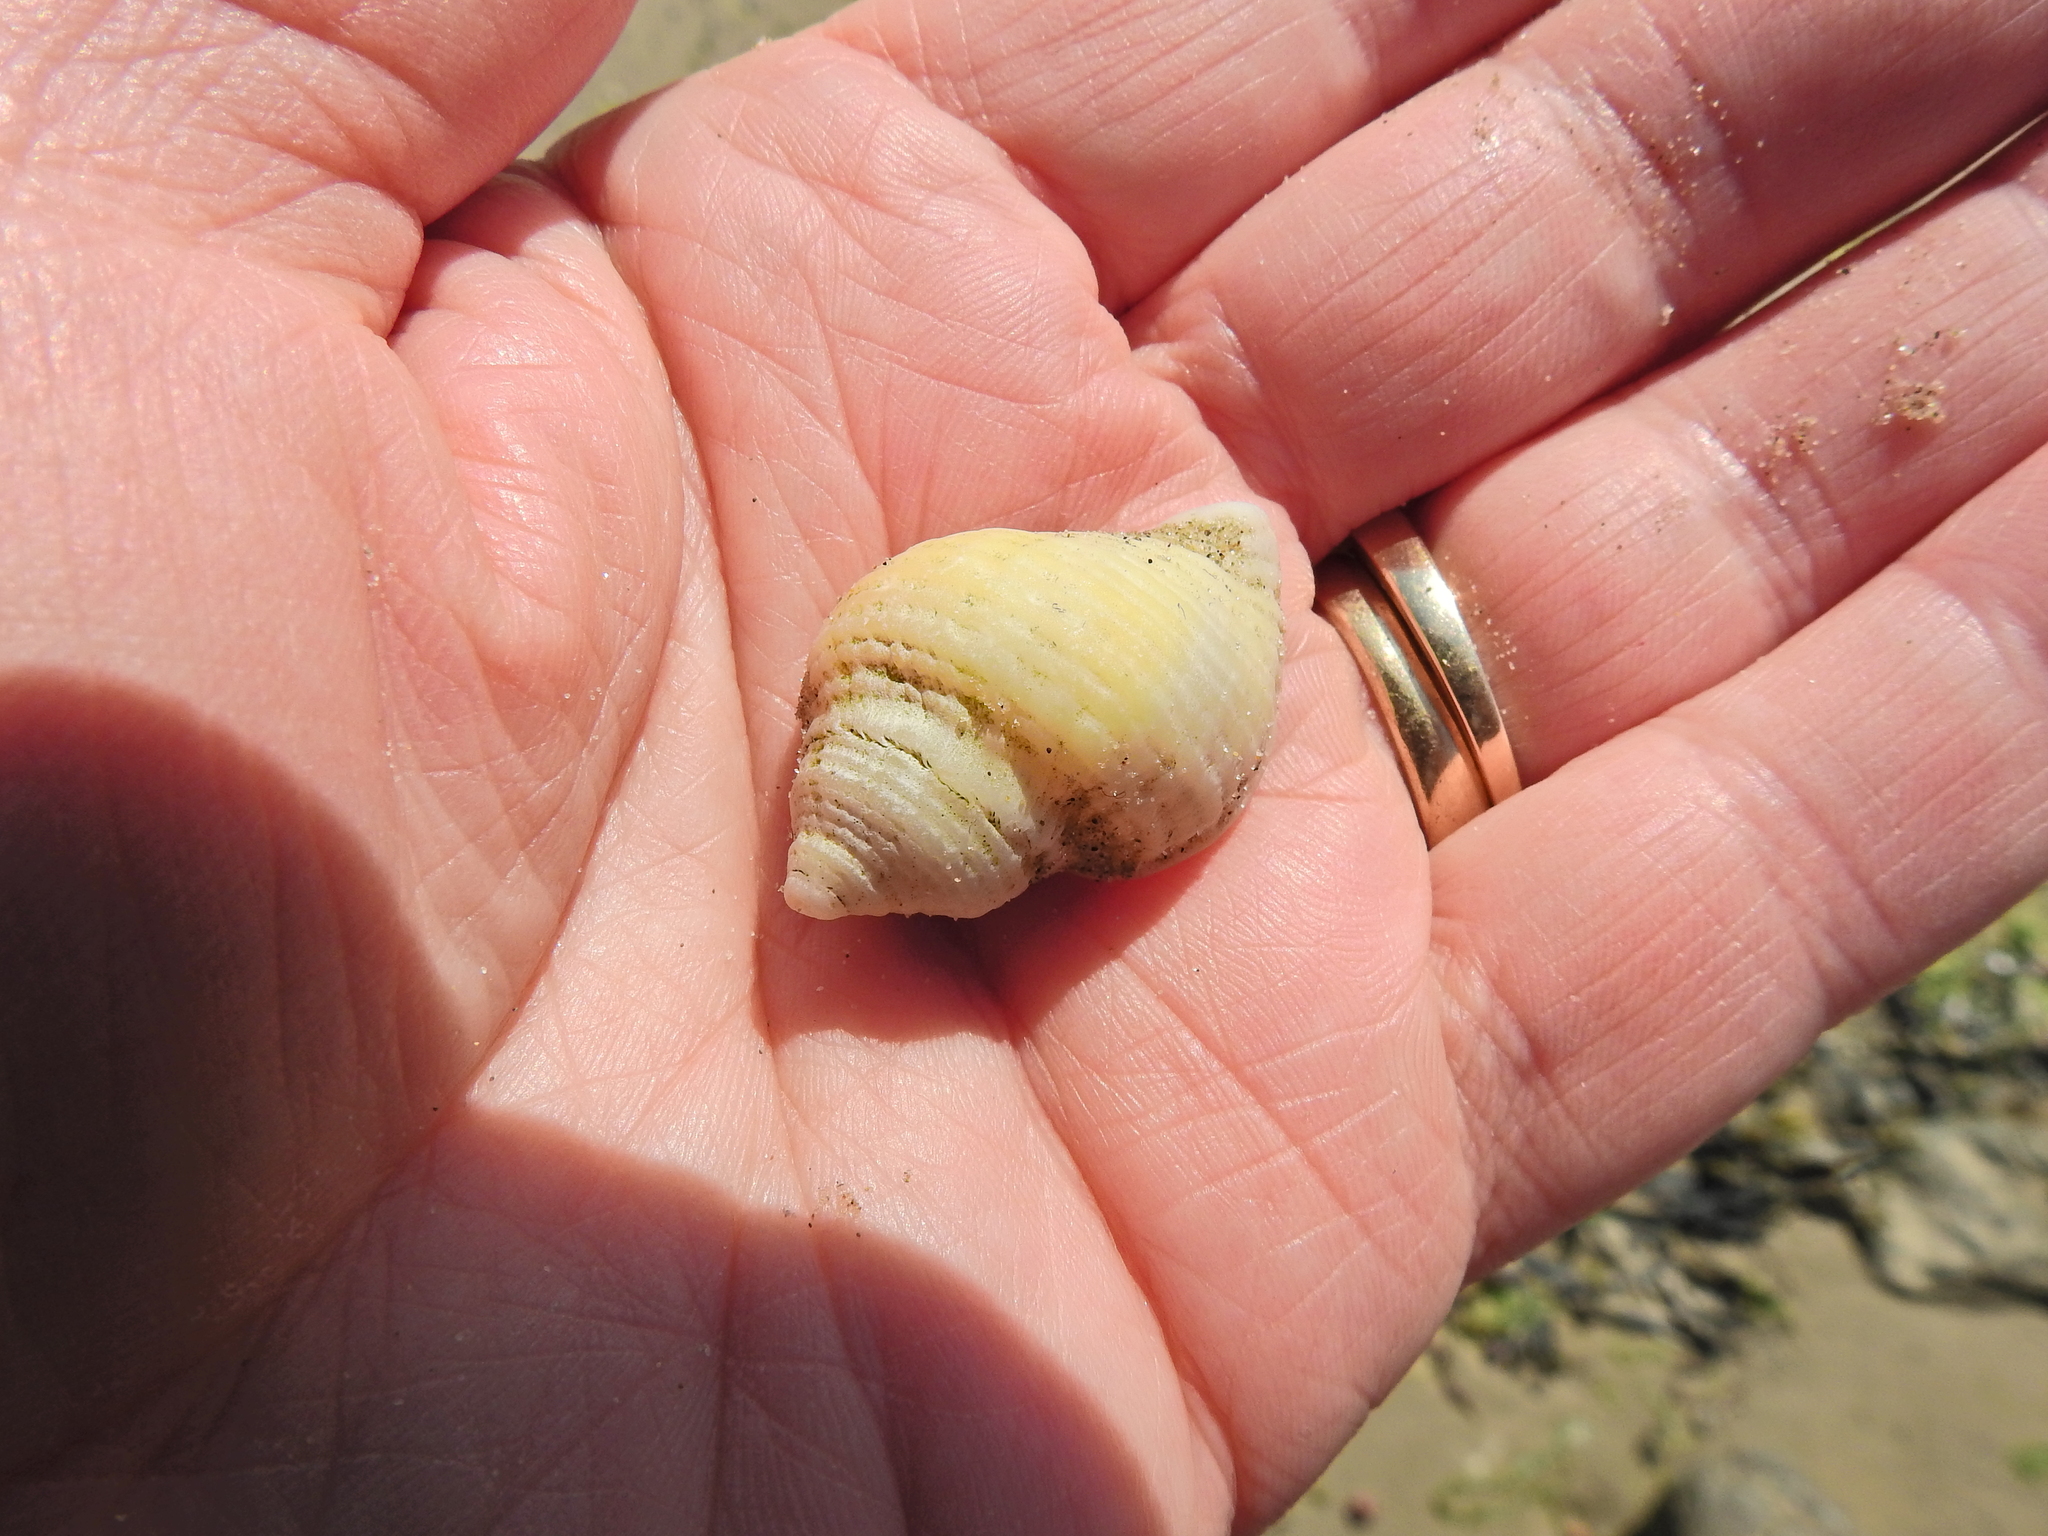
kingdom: Animalia
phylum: Mollusca
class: Gastropoda
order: Neogastropoda
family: Muricidae
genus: Nucella
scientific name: Nucella lapillus
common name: Dog whelk
